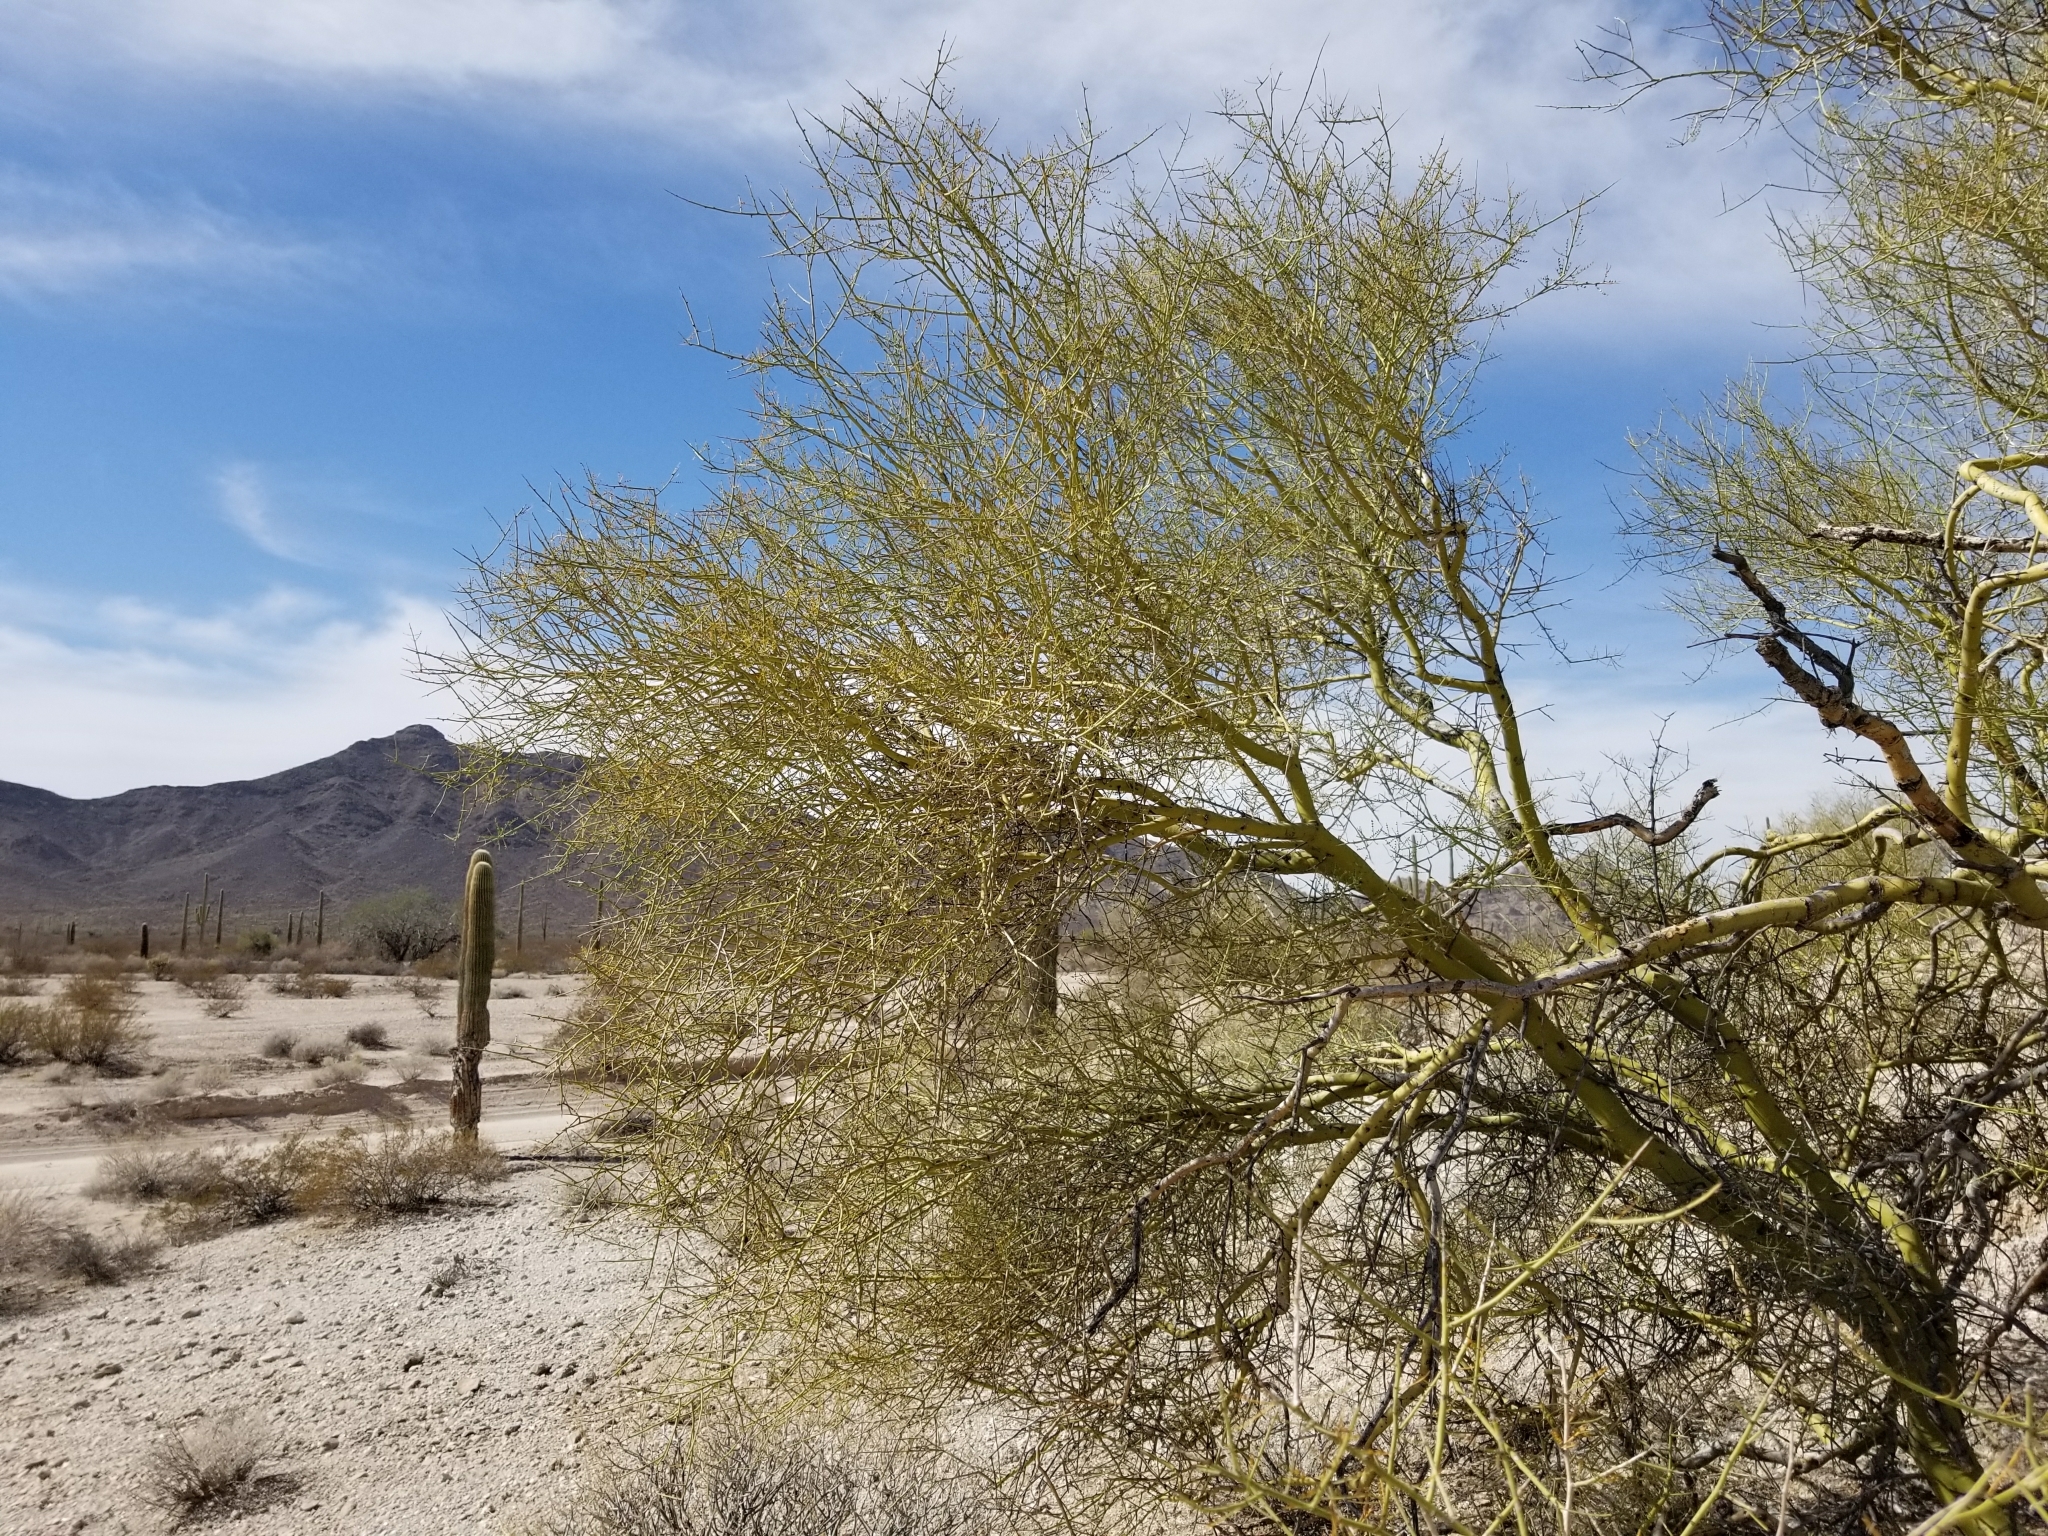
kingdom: Plantae
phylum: Tracheophyta
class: Magnoliopsida
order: Fabales
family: Fabaceae
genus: Parkinsonia
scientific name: Parkinsonia microphylla
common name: Yellow paloverde
